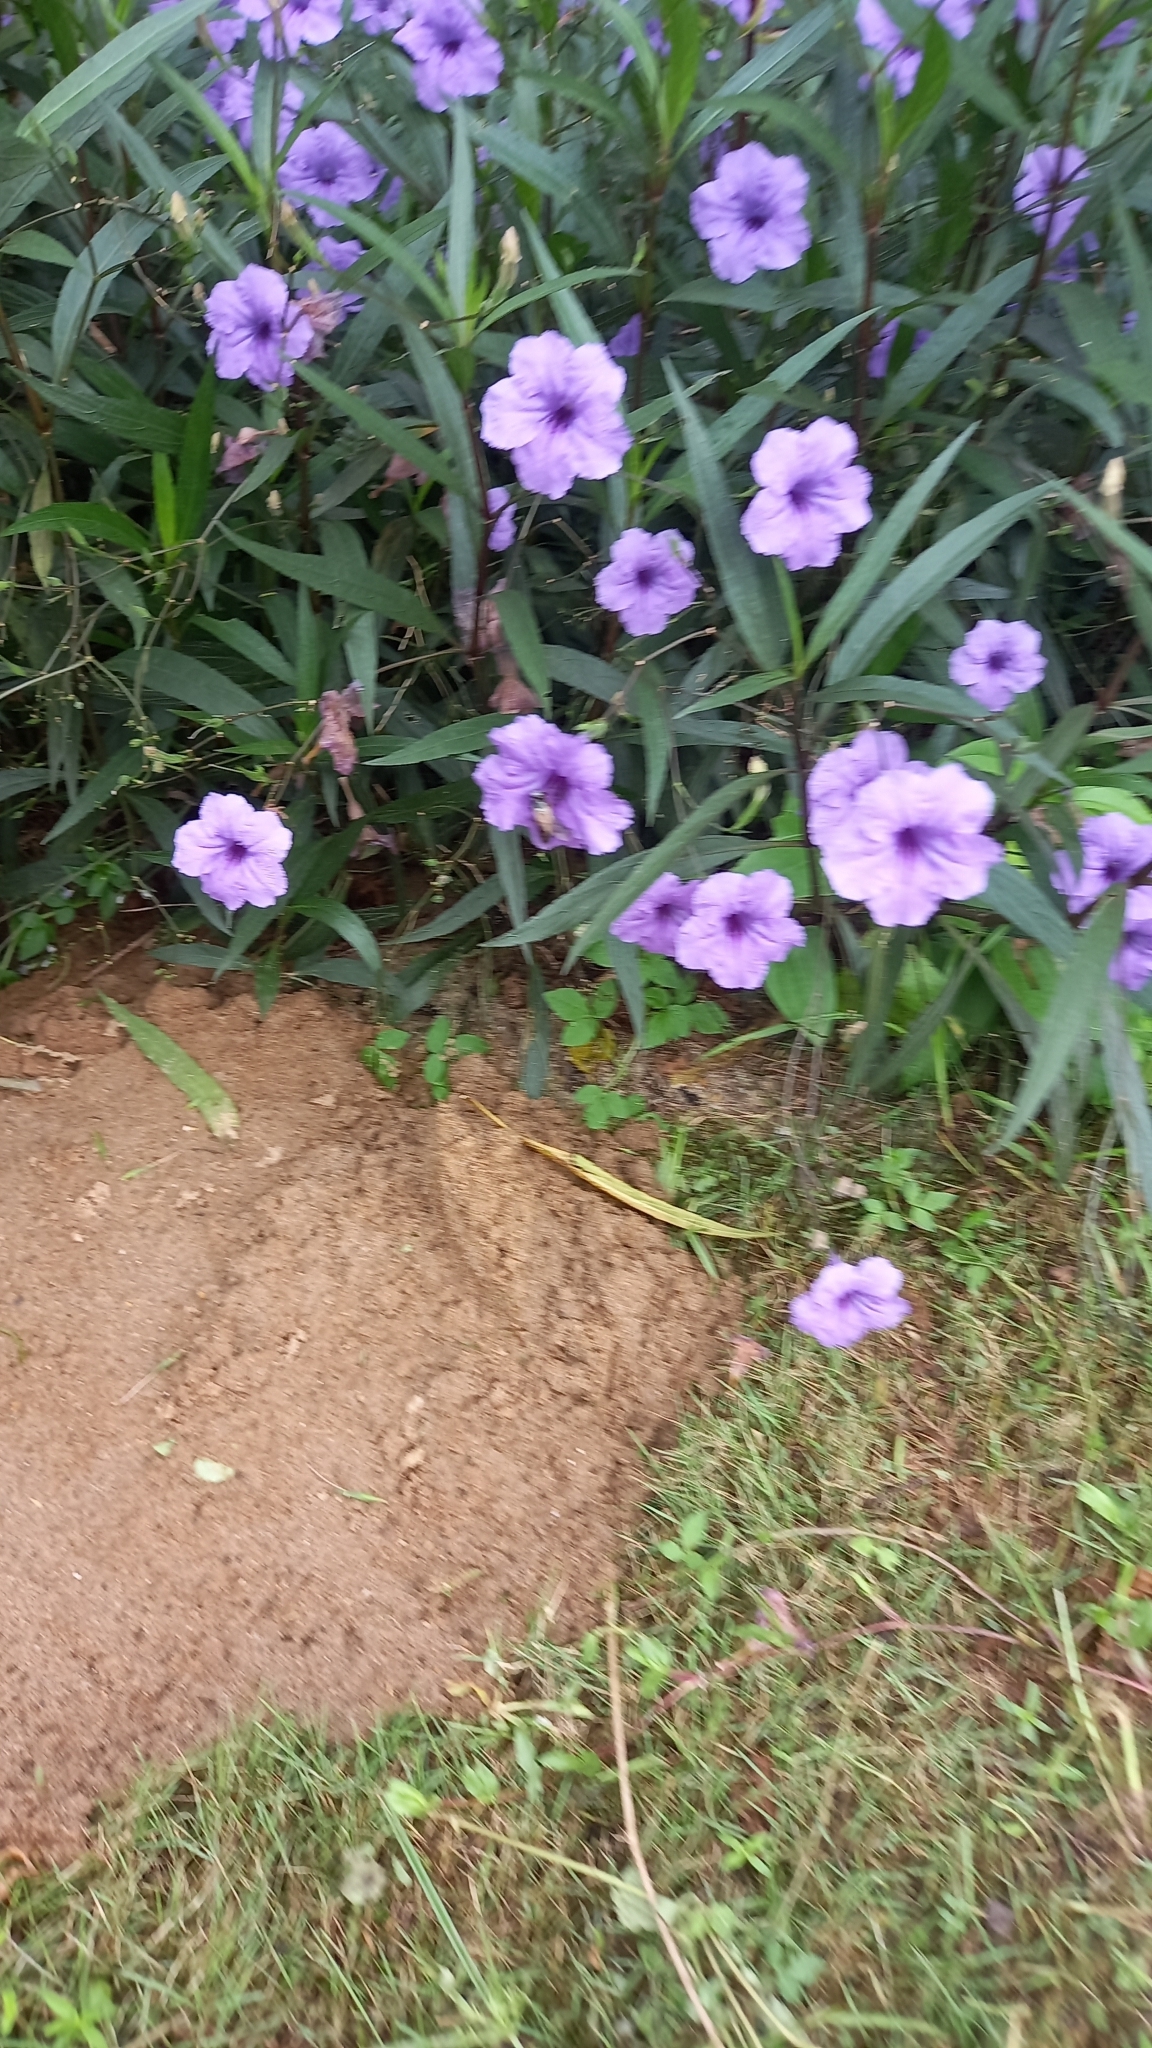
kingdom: Animalia
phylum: Arthropoda
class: Insecta
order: Hymenoptera
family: Apidae
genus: Apis
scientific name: Apis dorsata
